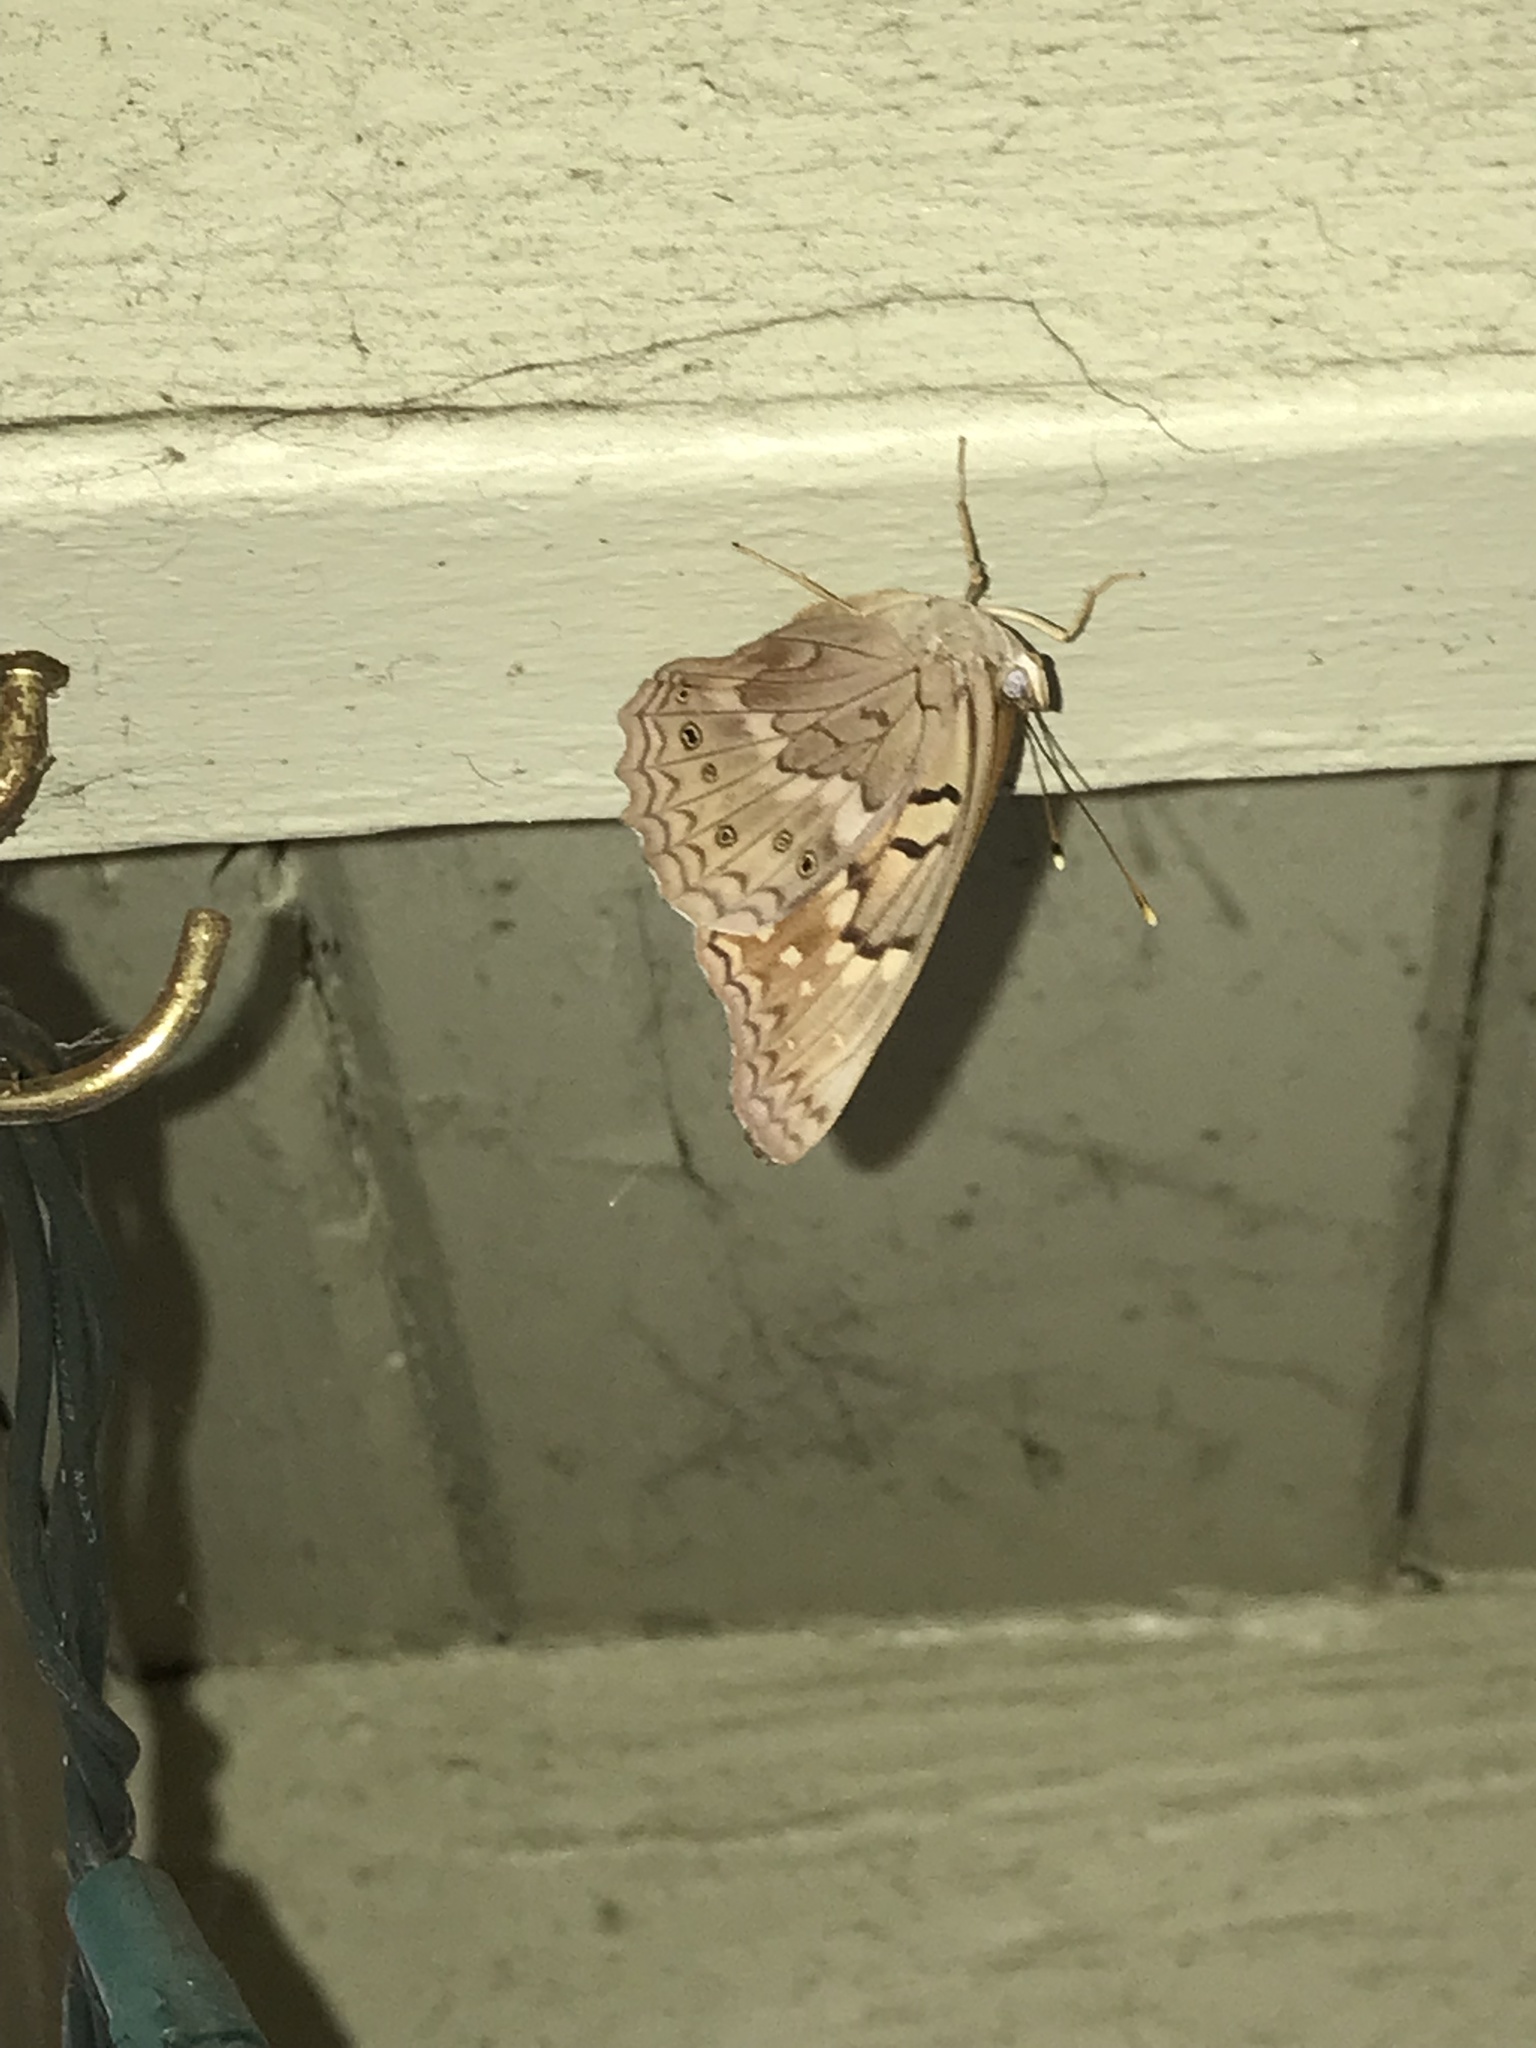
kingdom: Animalia
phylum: Arthropoda
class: Insecta
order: Lepidoptera
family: Nymphalidae
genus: Asterocampa
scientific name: Asterocampa clyton
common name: Tawny emperor
